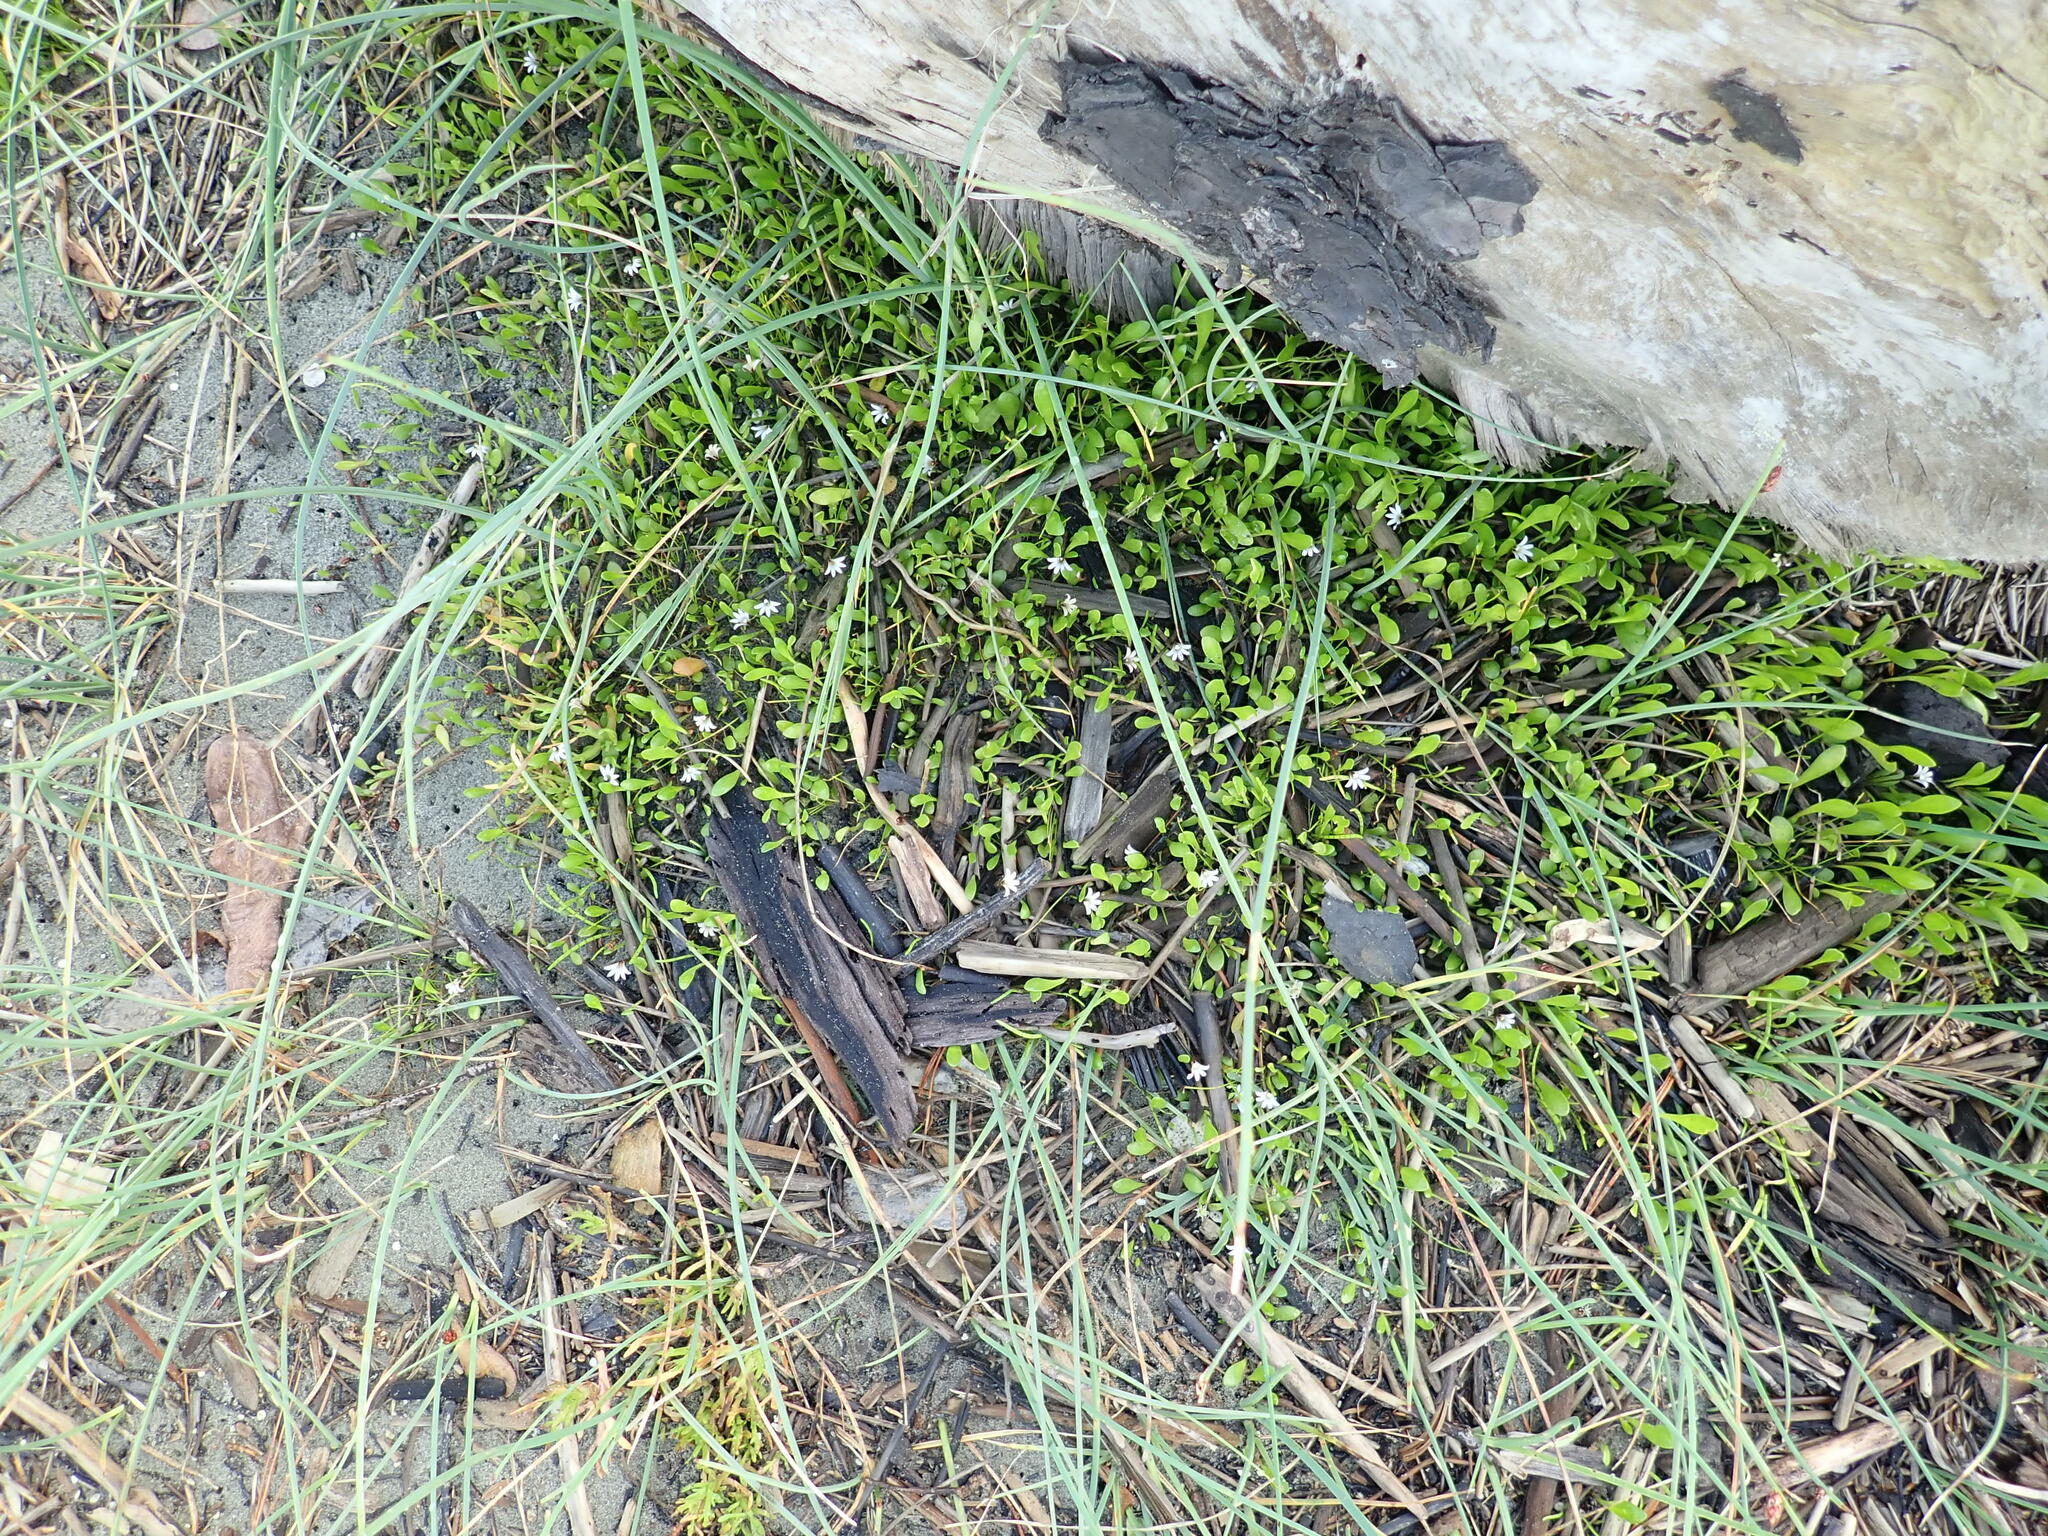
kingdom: Plantae
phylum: Tracheophyta
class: Magnoliopsida
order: Asterales
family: Goodeniaceae
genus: Goodenia
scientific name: Goodenia radicans
